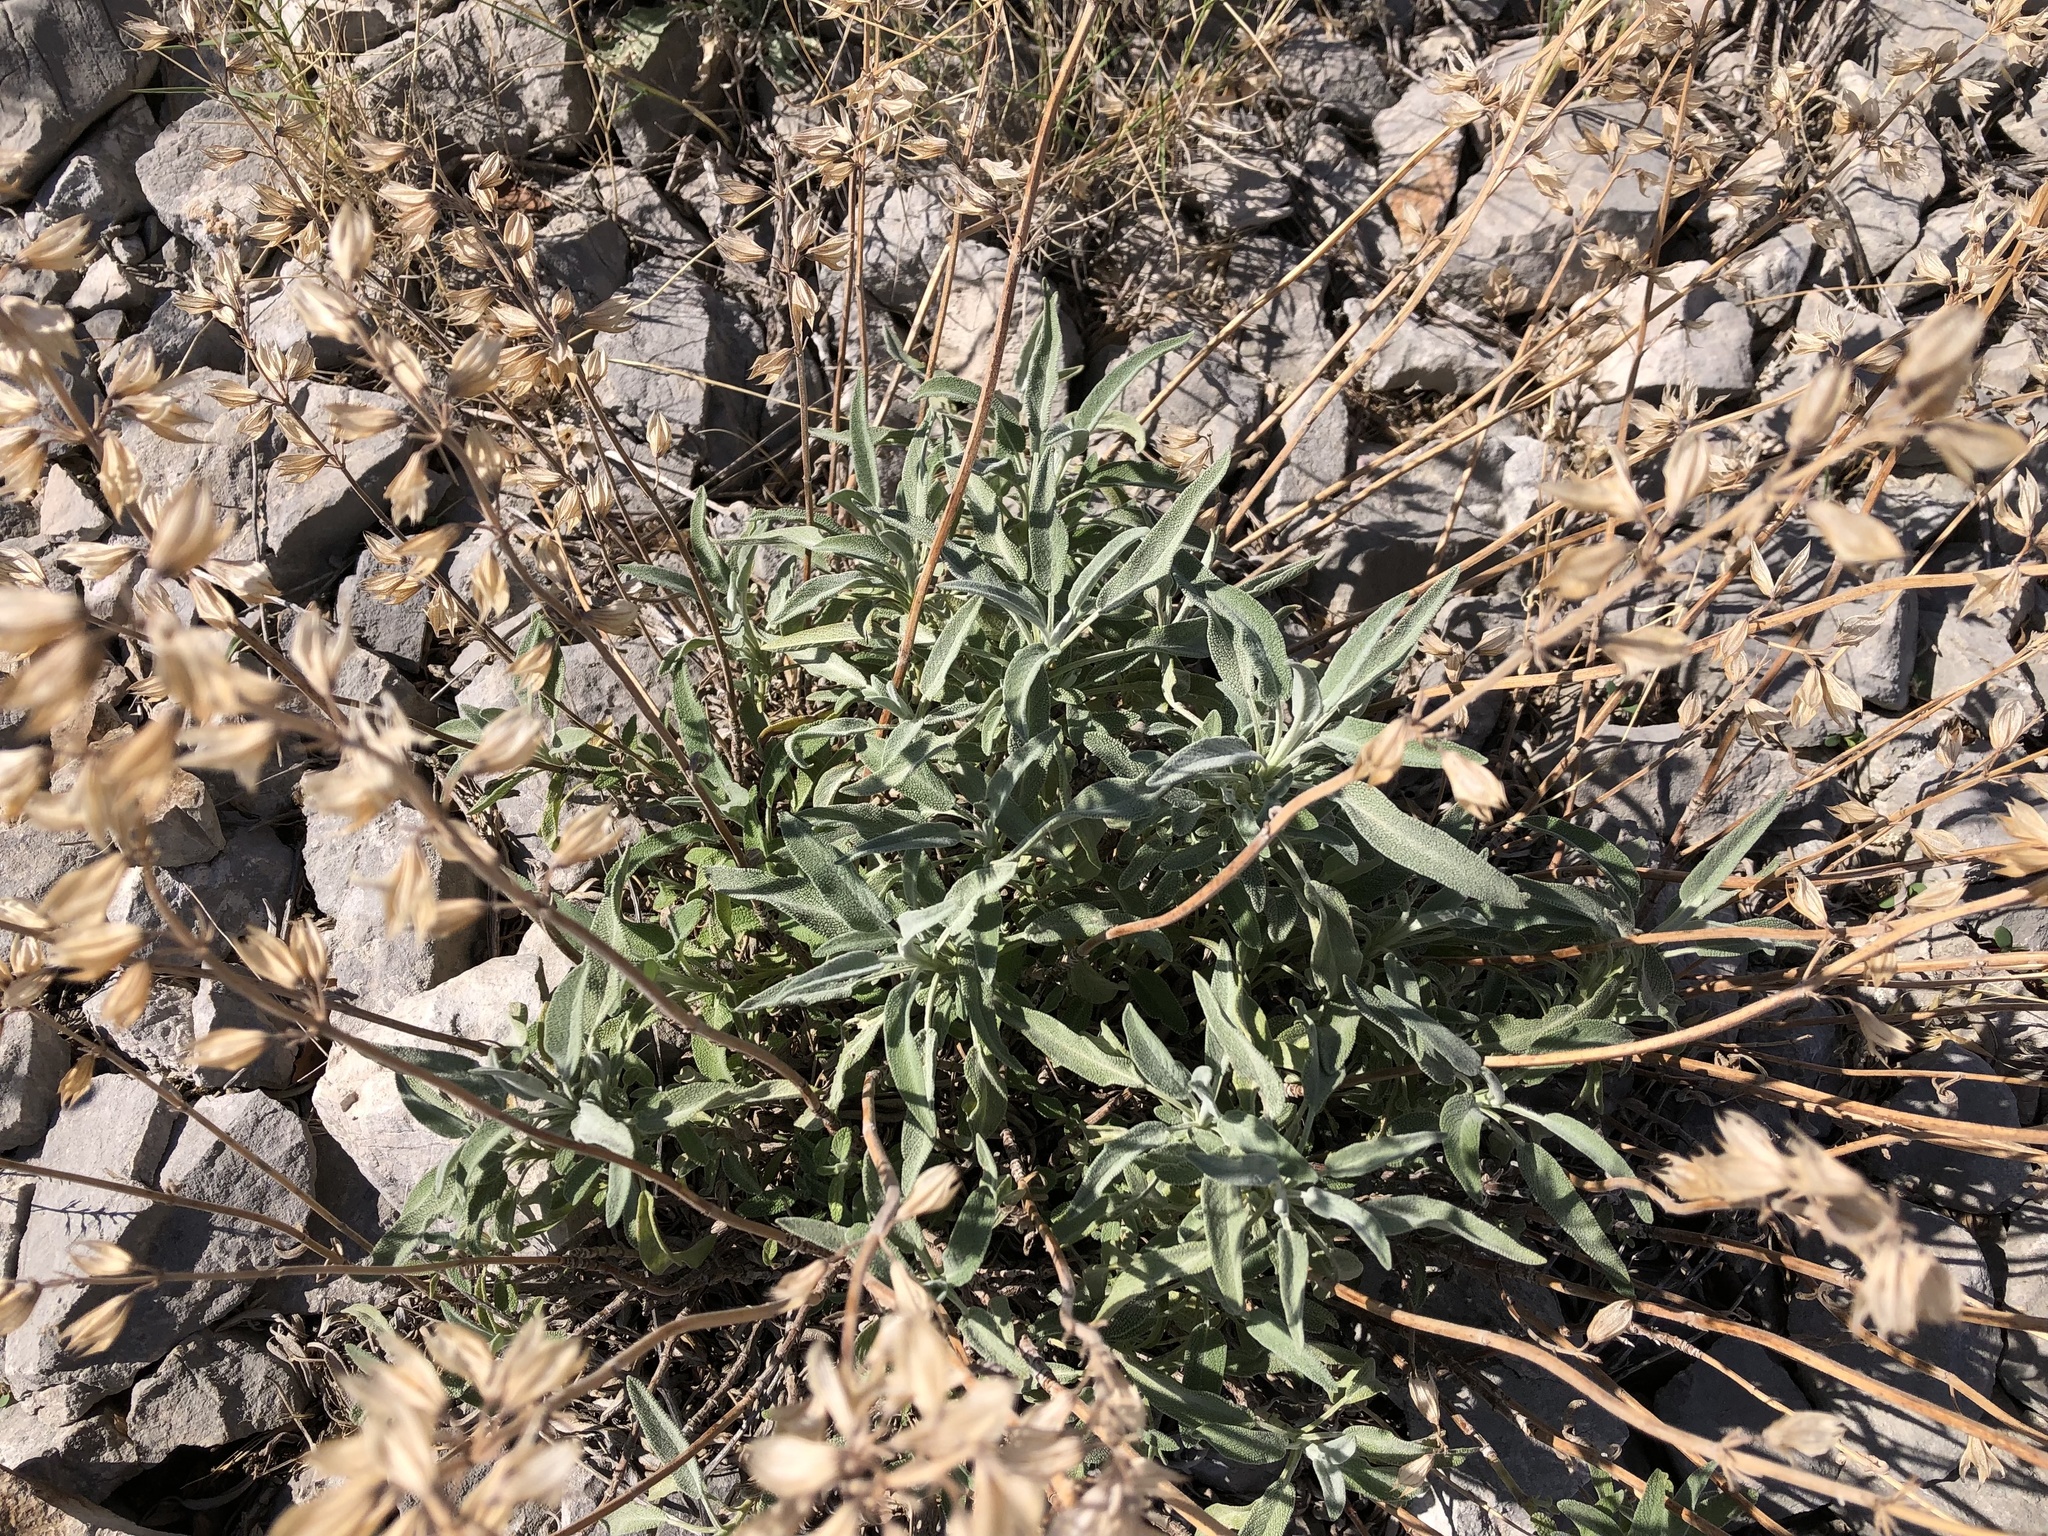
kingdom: Plantae
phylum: Tracheophyta
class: Magnoliopsida
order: Lamiales
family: Lamiaceae
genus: Salvia
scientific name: Salvia officinalis
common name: Sage
